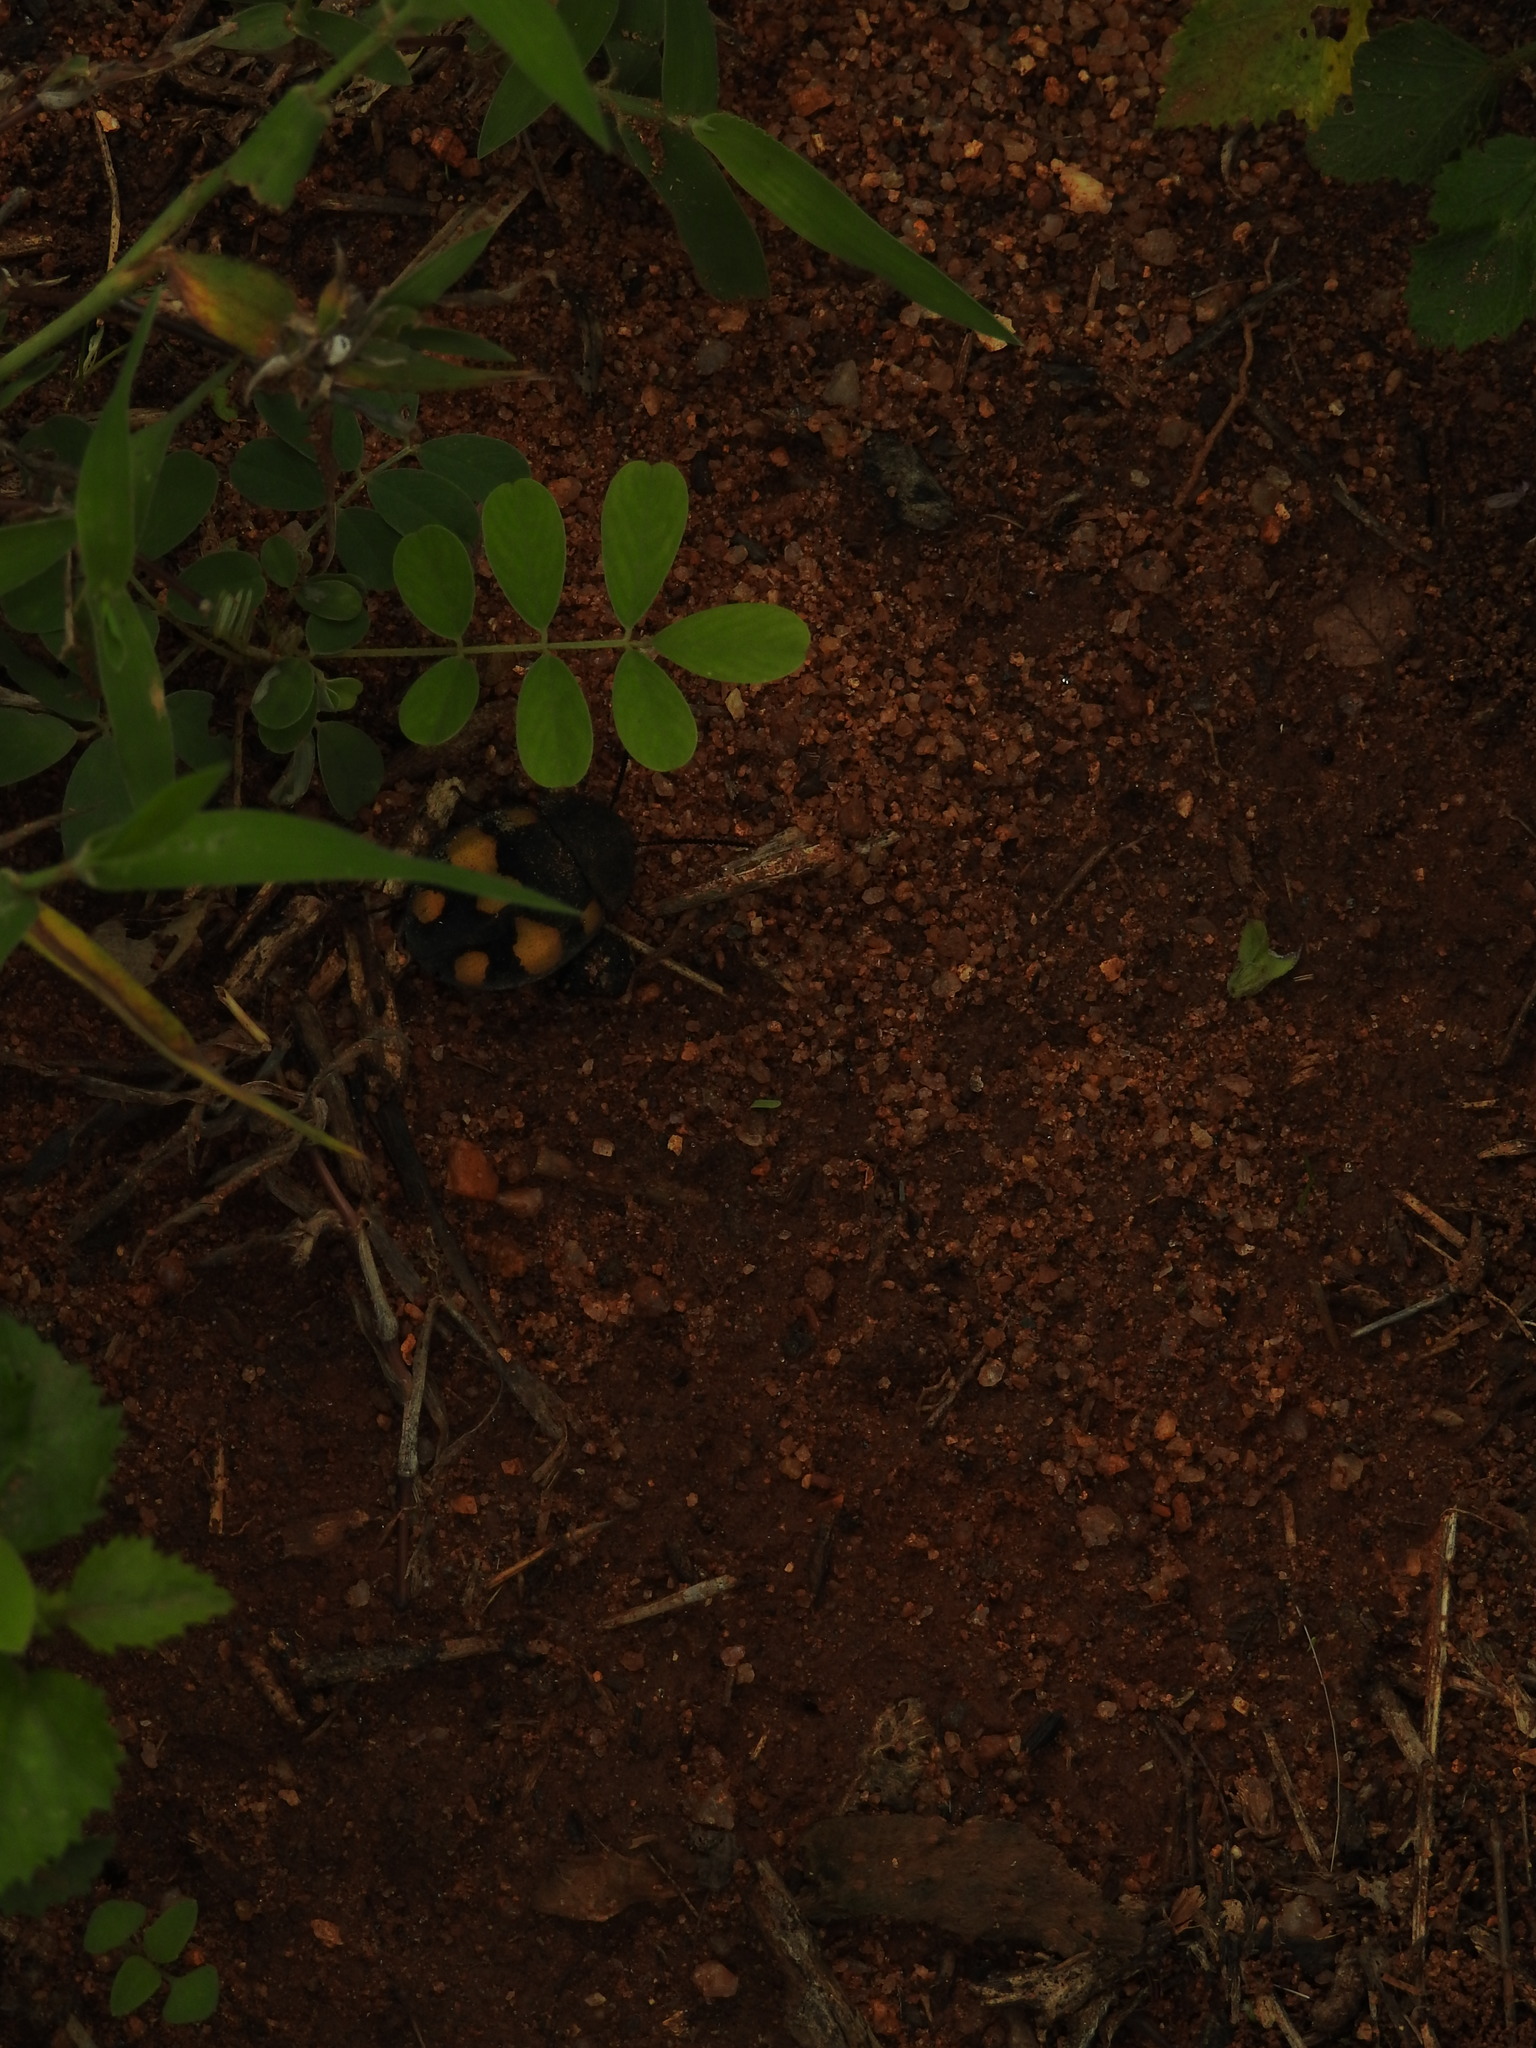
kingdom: Animalia
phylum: Arthropoda
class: Insecta
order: Blattodea
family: Corydiidae
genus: Therea
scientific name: Therea regularis
